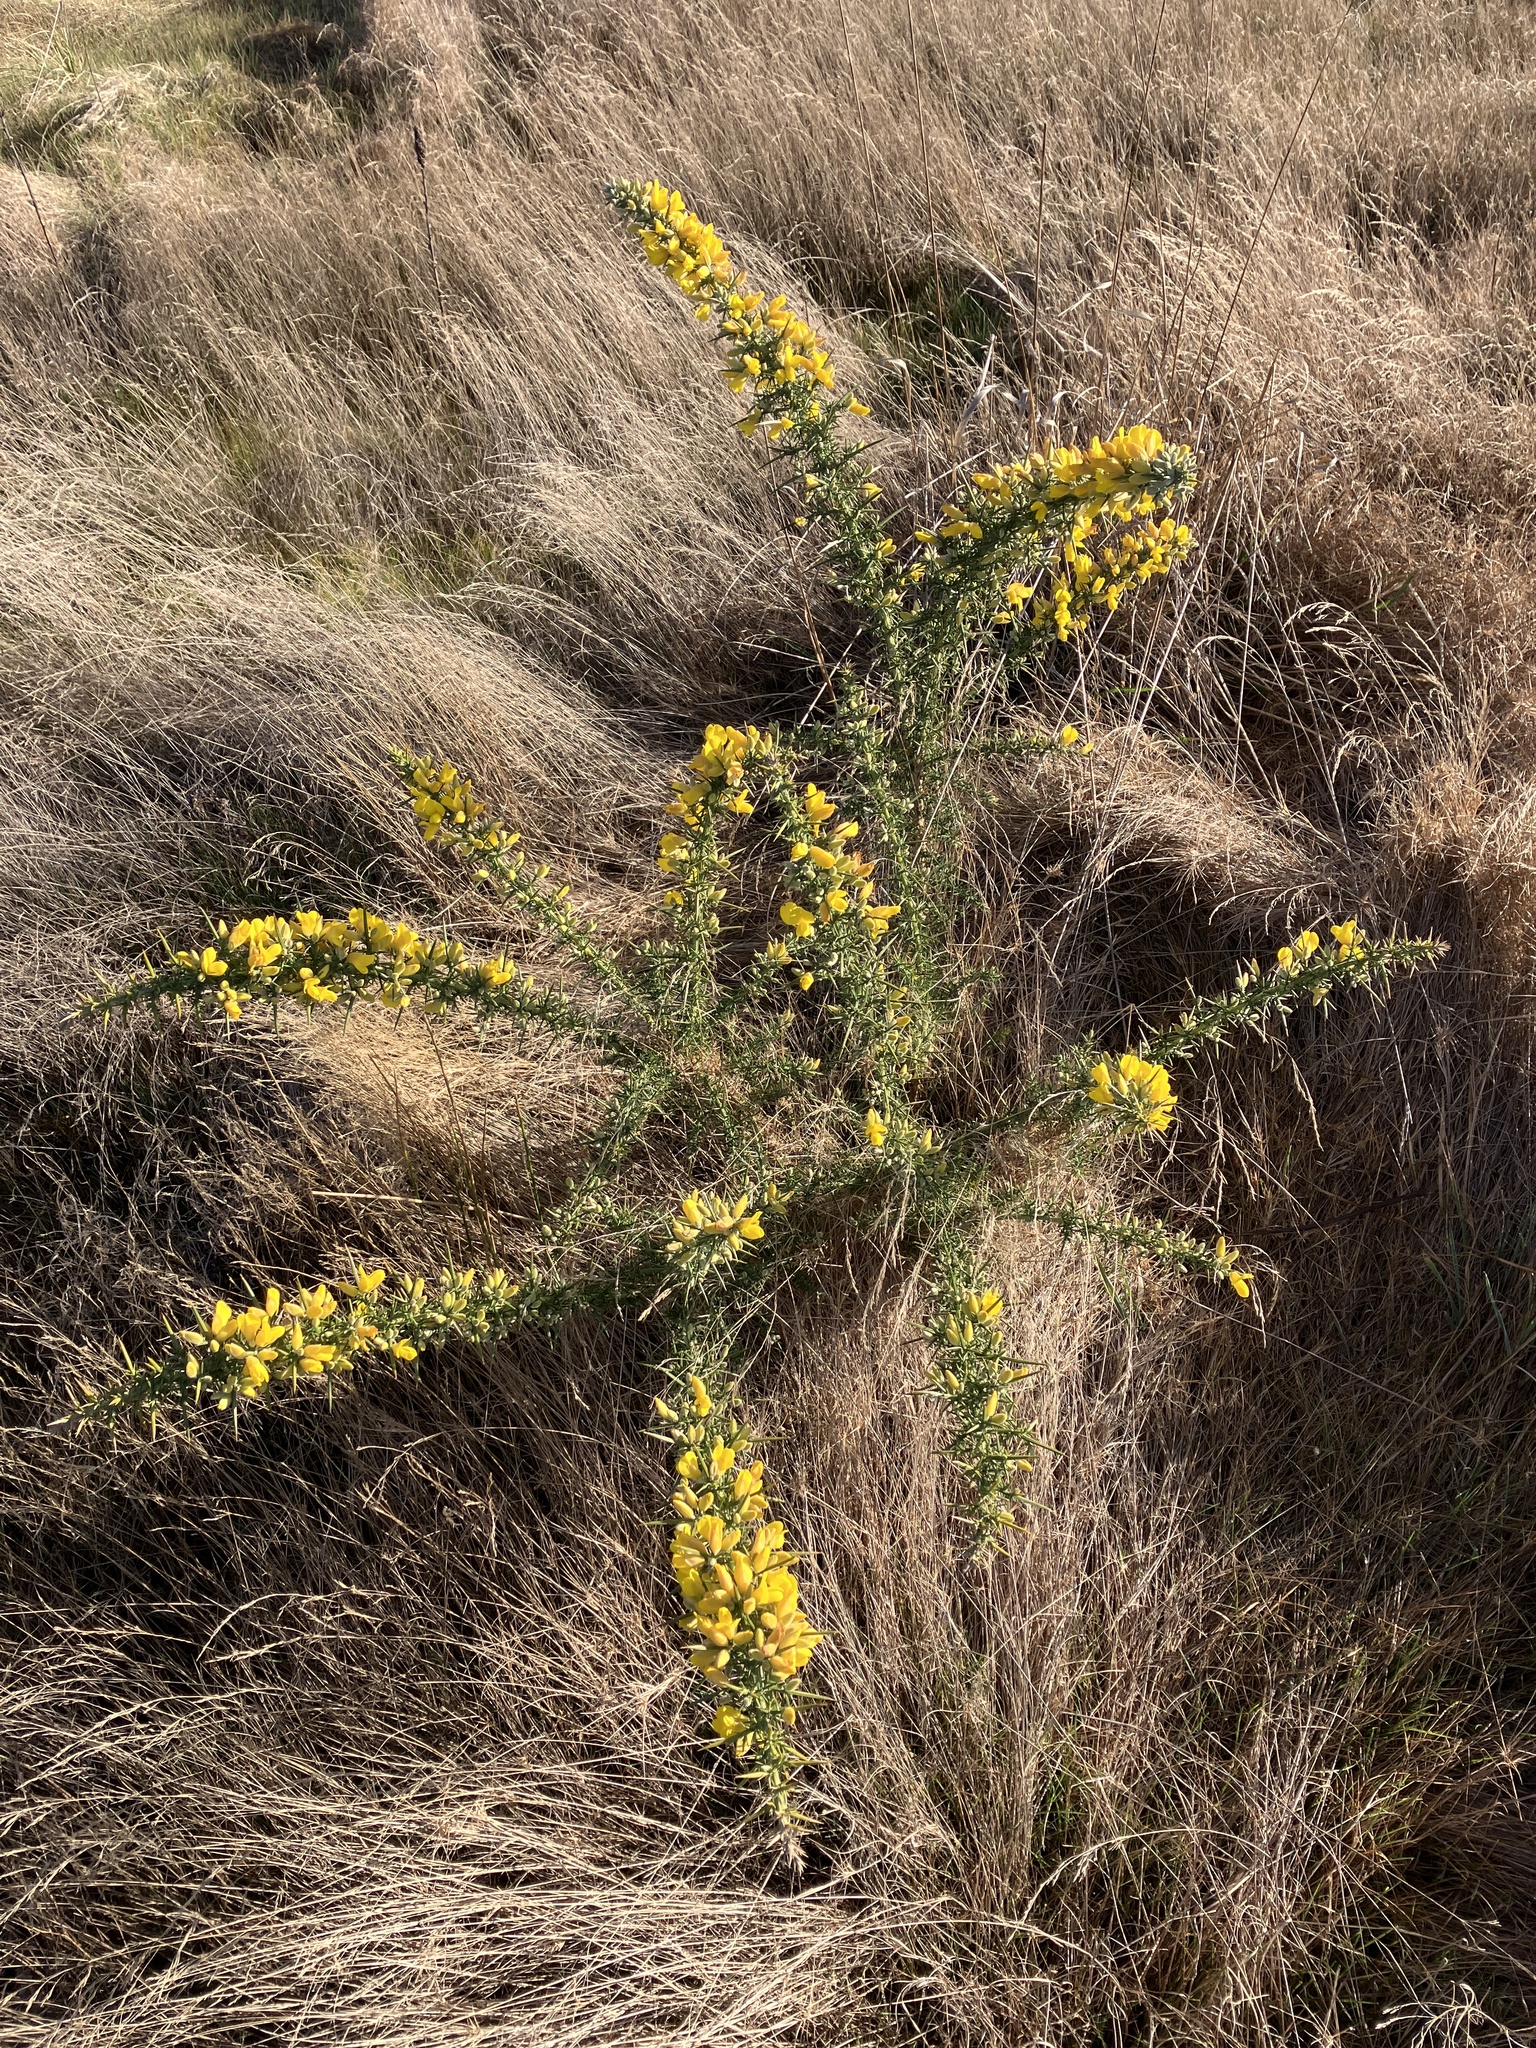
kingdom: Plantae
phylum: Tracheophyta
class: Magnoliopsida
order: Fabales
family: Fabaceae
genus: Ulex
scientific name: Ulex europaeus
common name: Common gorse
